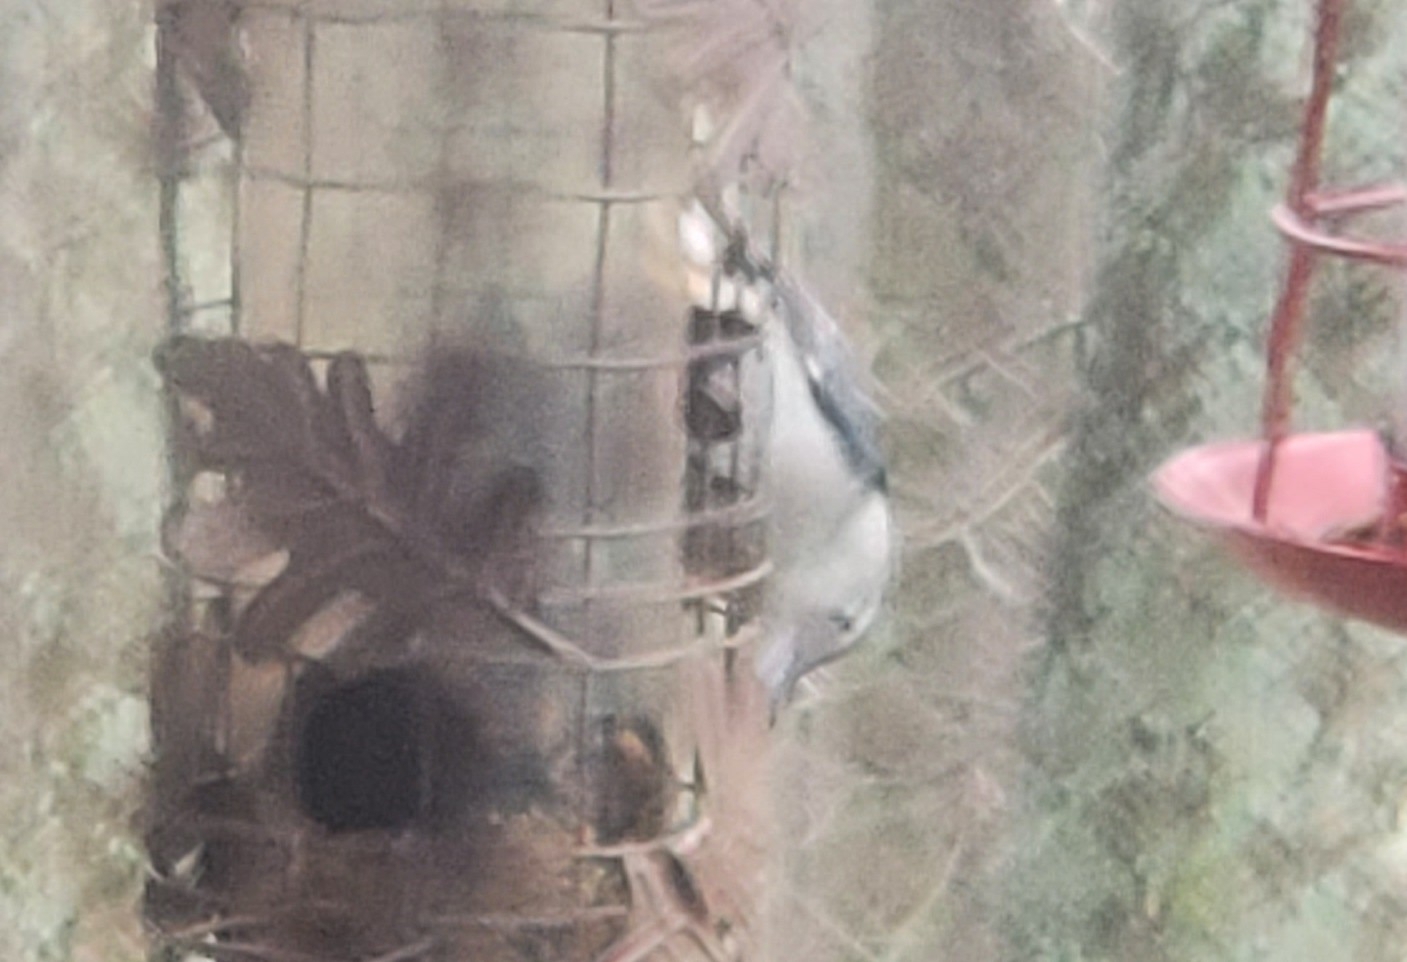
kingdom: Animalia
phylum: Chordata
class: Aves
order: Passeriformes
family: Sittidae
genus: Sitta
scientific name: Sitta carolinensis
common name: White-breasted nuthatch
